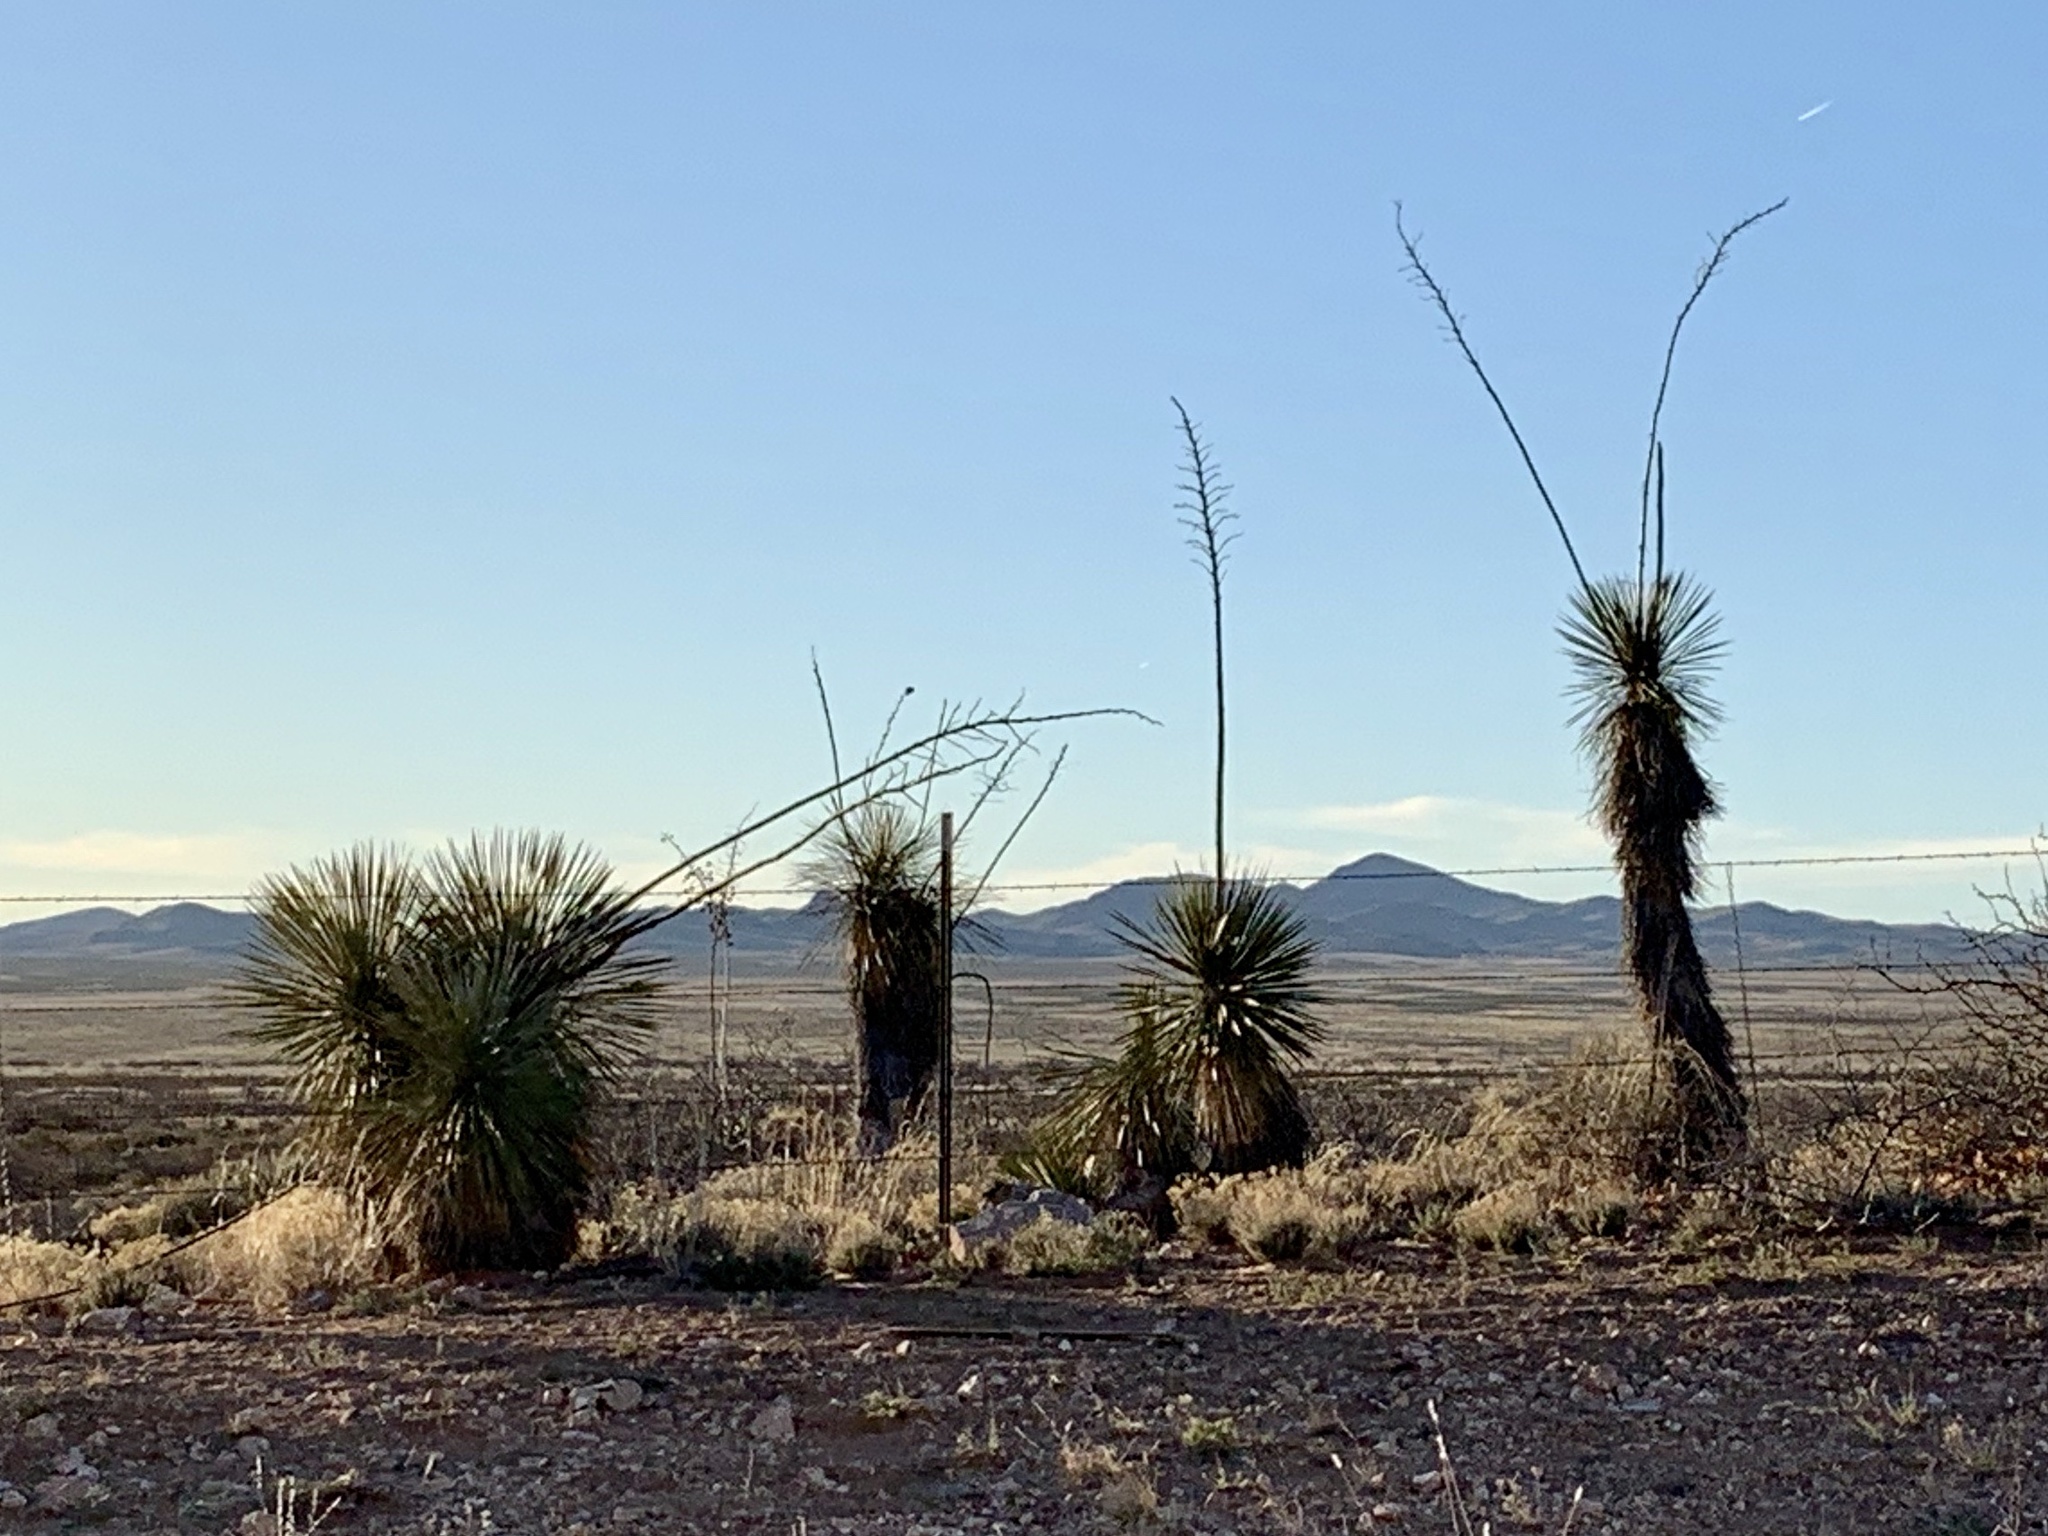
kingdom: Plantae
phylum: Tracheophyta
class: Liliopsida
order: Asparagales
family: Asparagaceae
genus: Yucca
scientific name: Yucca elata
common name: Palmella
